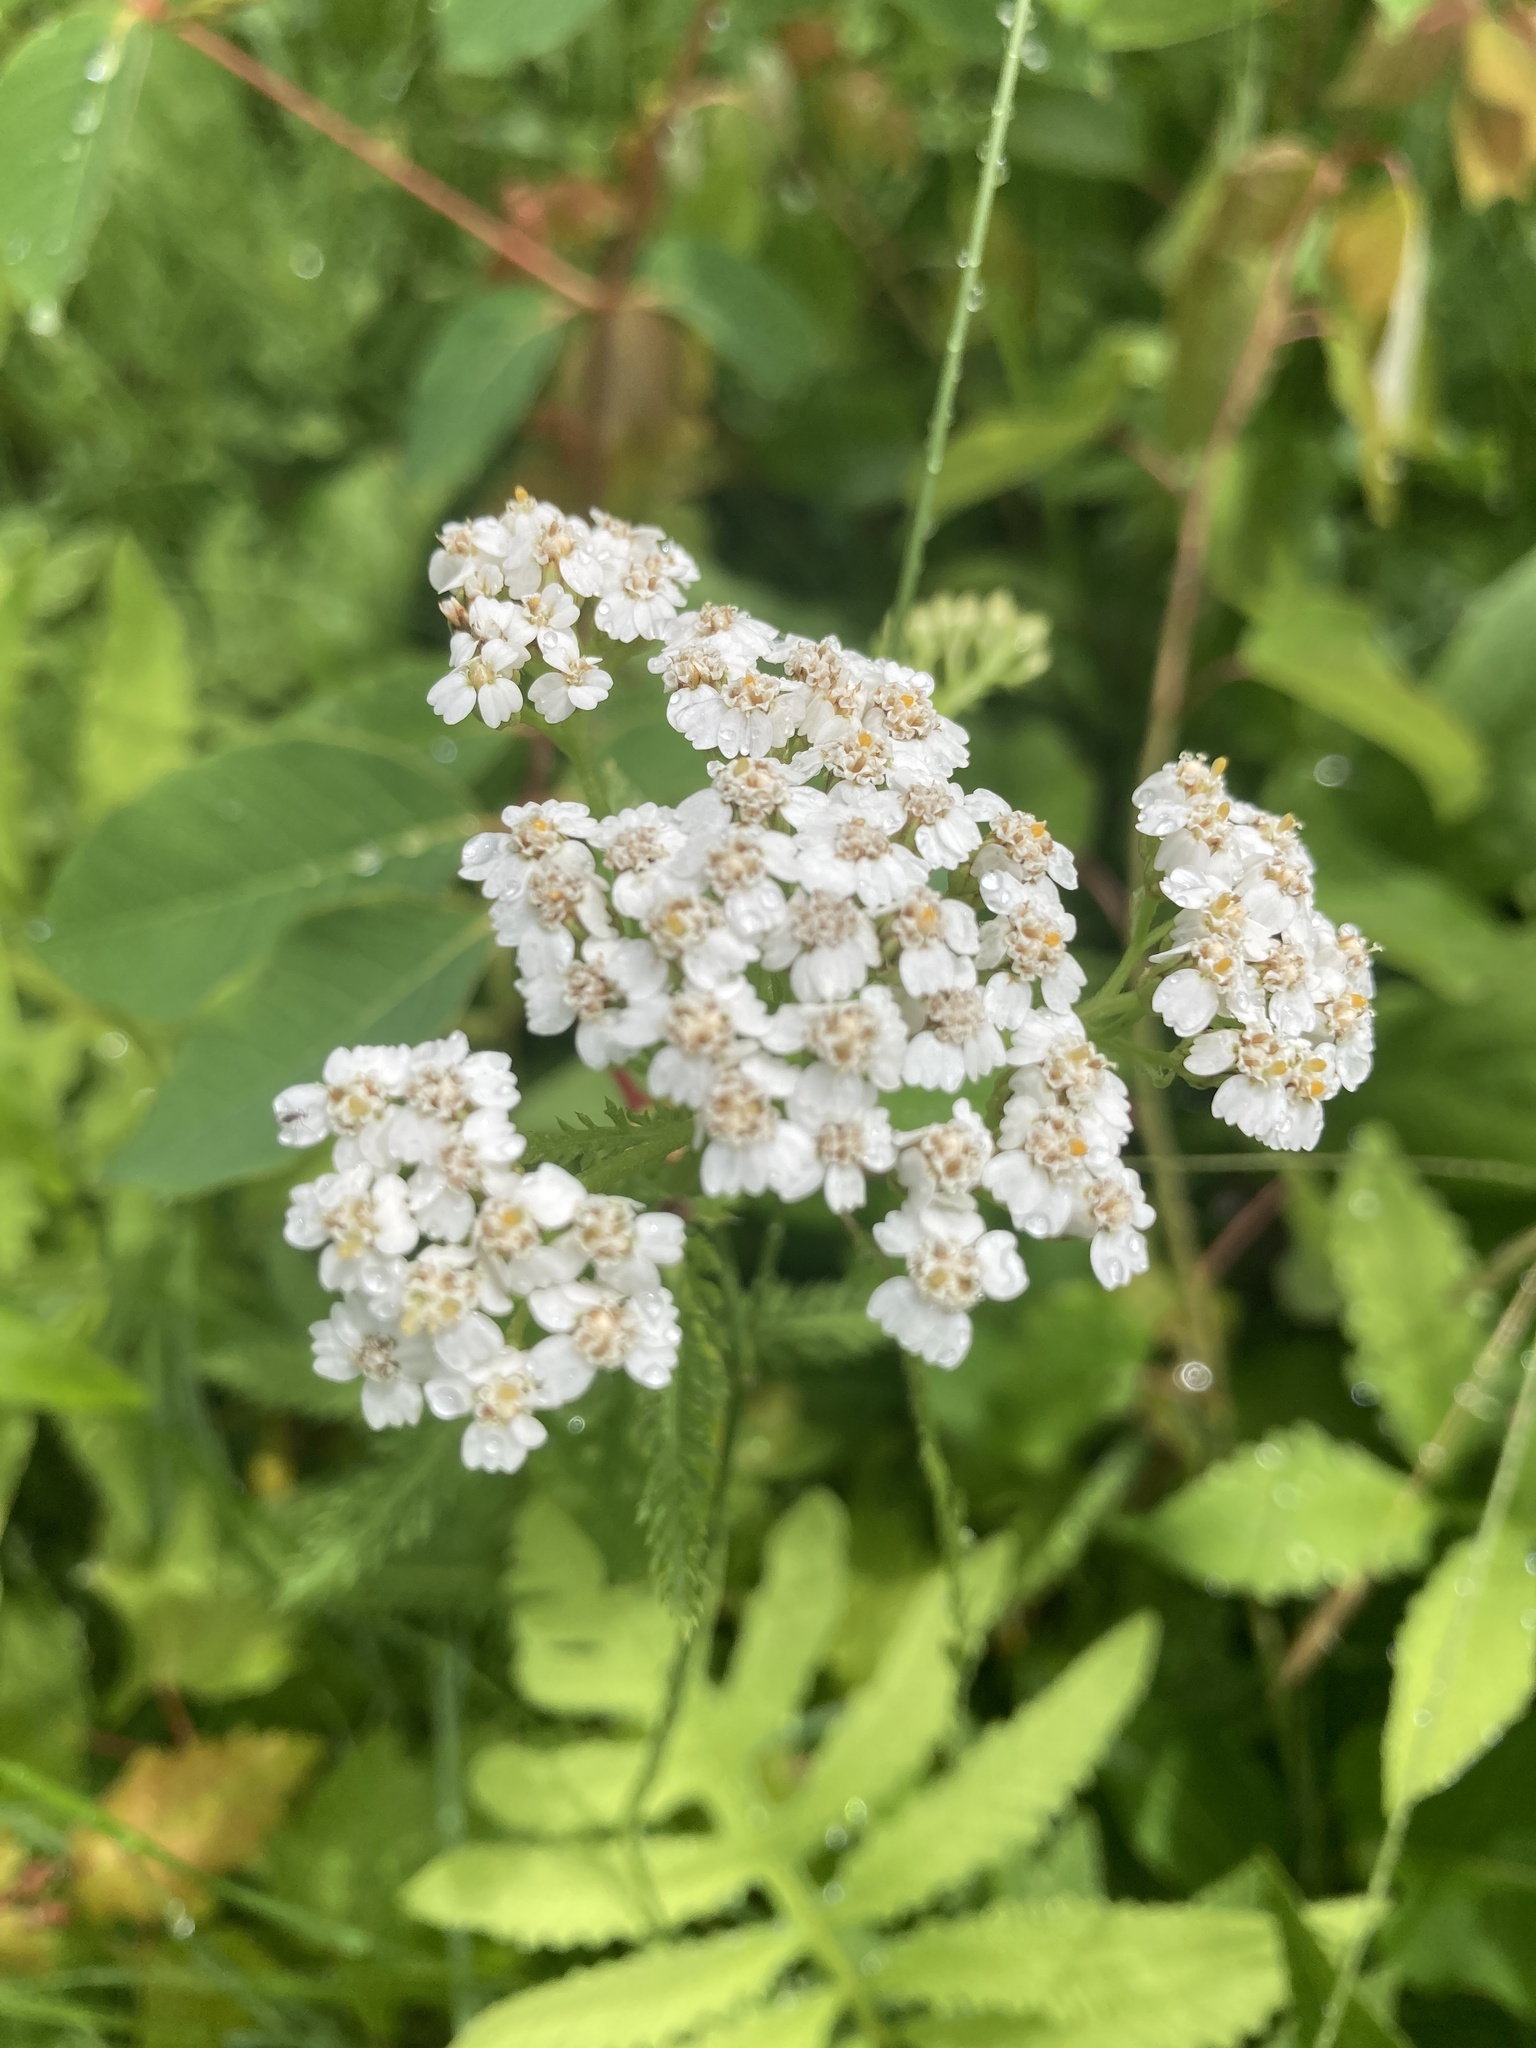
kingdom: Plantae
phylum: Tracheophyta
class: Magnoliopsida
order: Asterales
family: Asteraceae
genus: Achillea
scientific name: Achillea millefolium
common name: Yarrow
